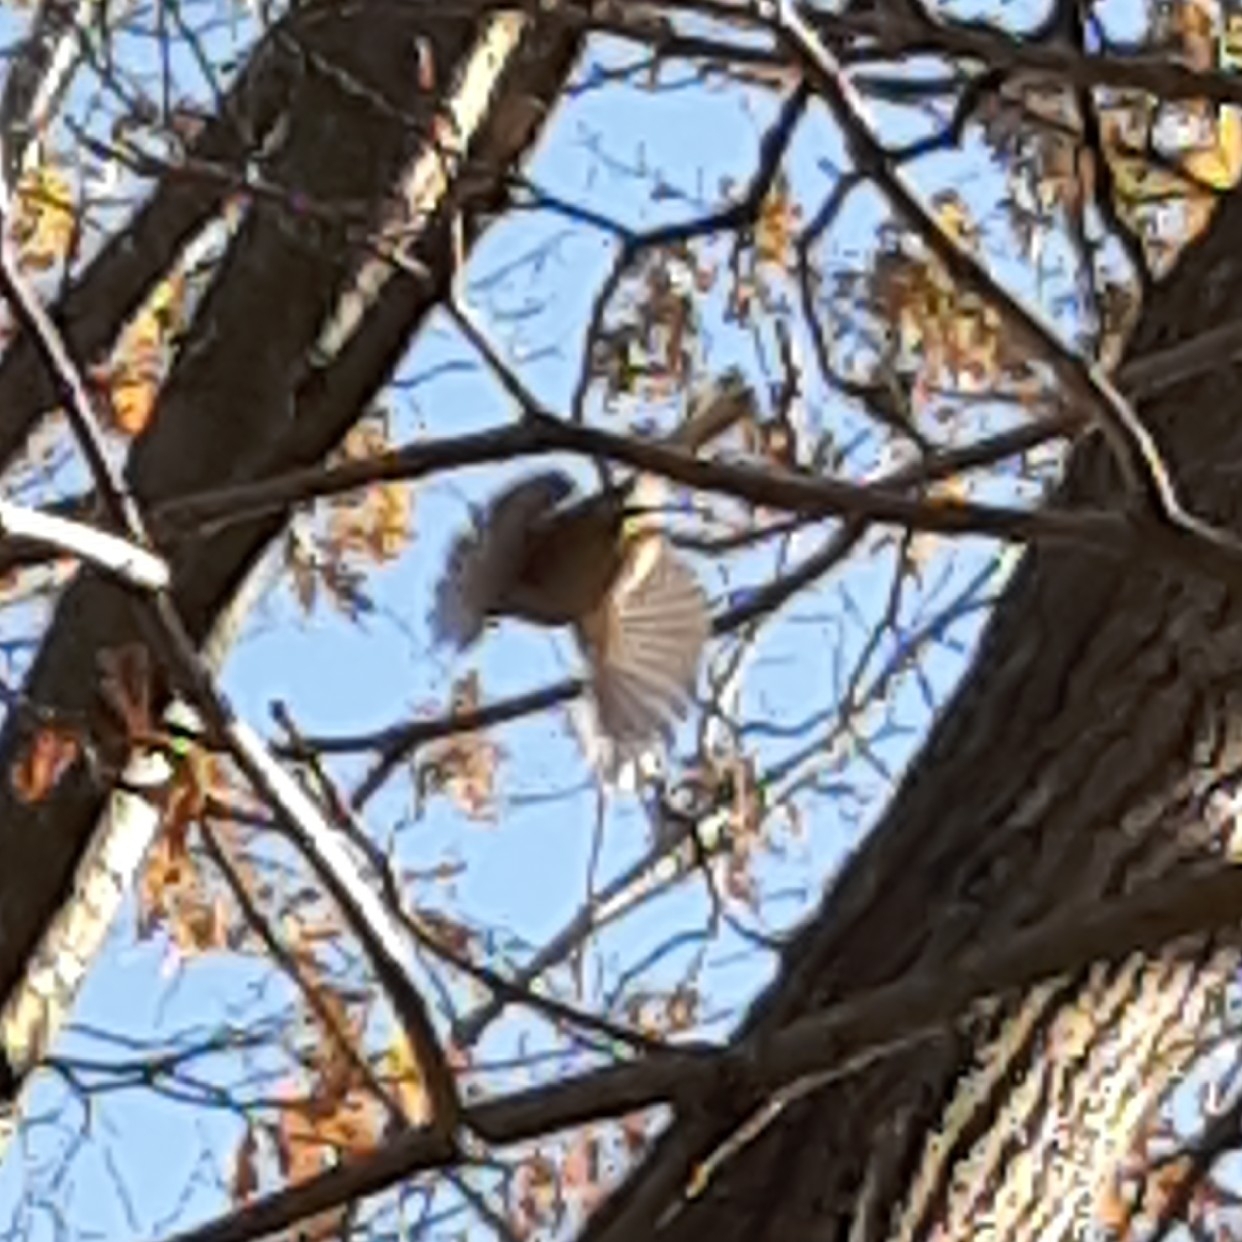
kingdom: Animalia
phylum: Chordata
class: Aves
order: Passeriformes
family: Aegithalidae
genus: Psaltriparus
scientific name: Psaltriparus minimus
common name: American bushtit
